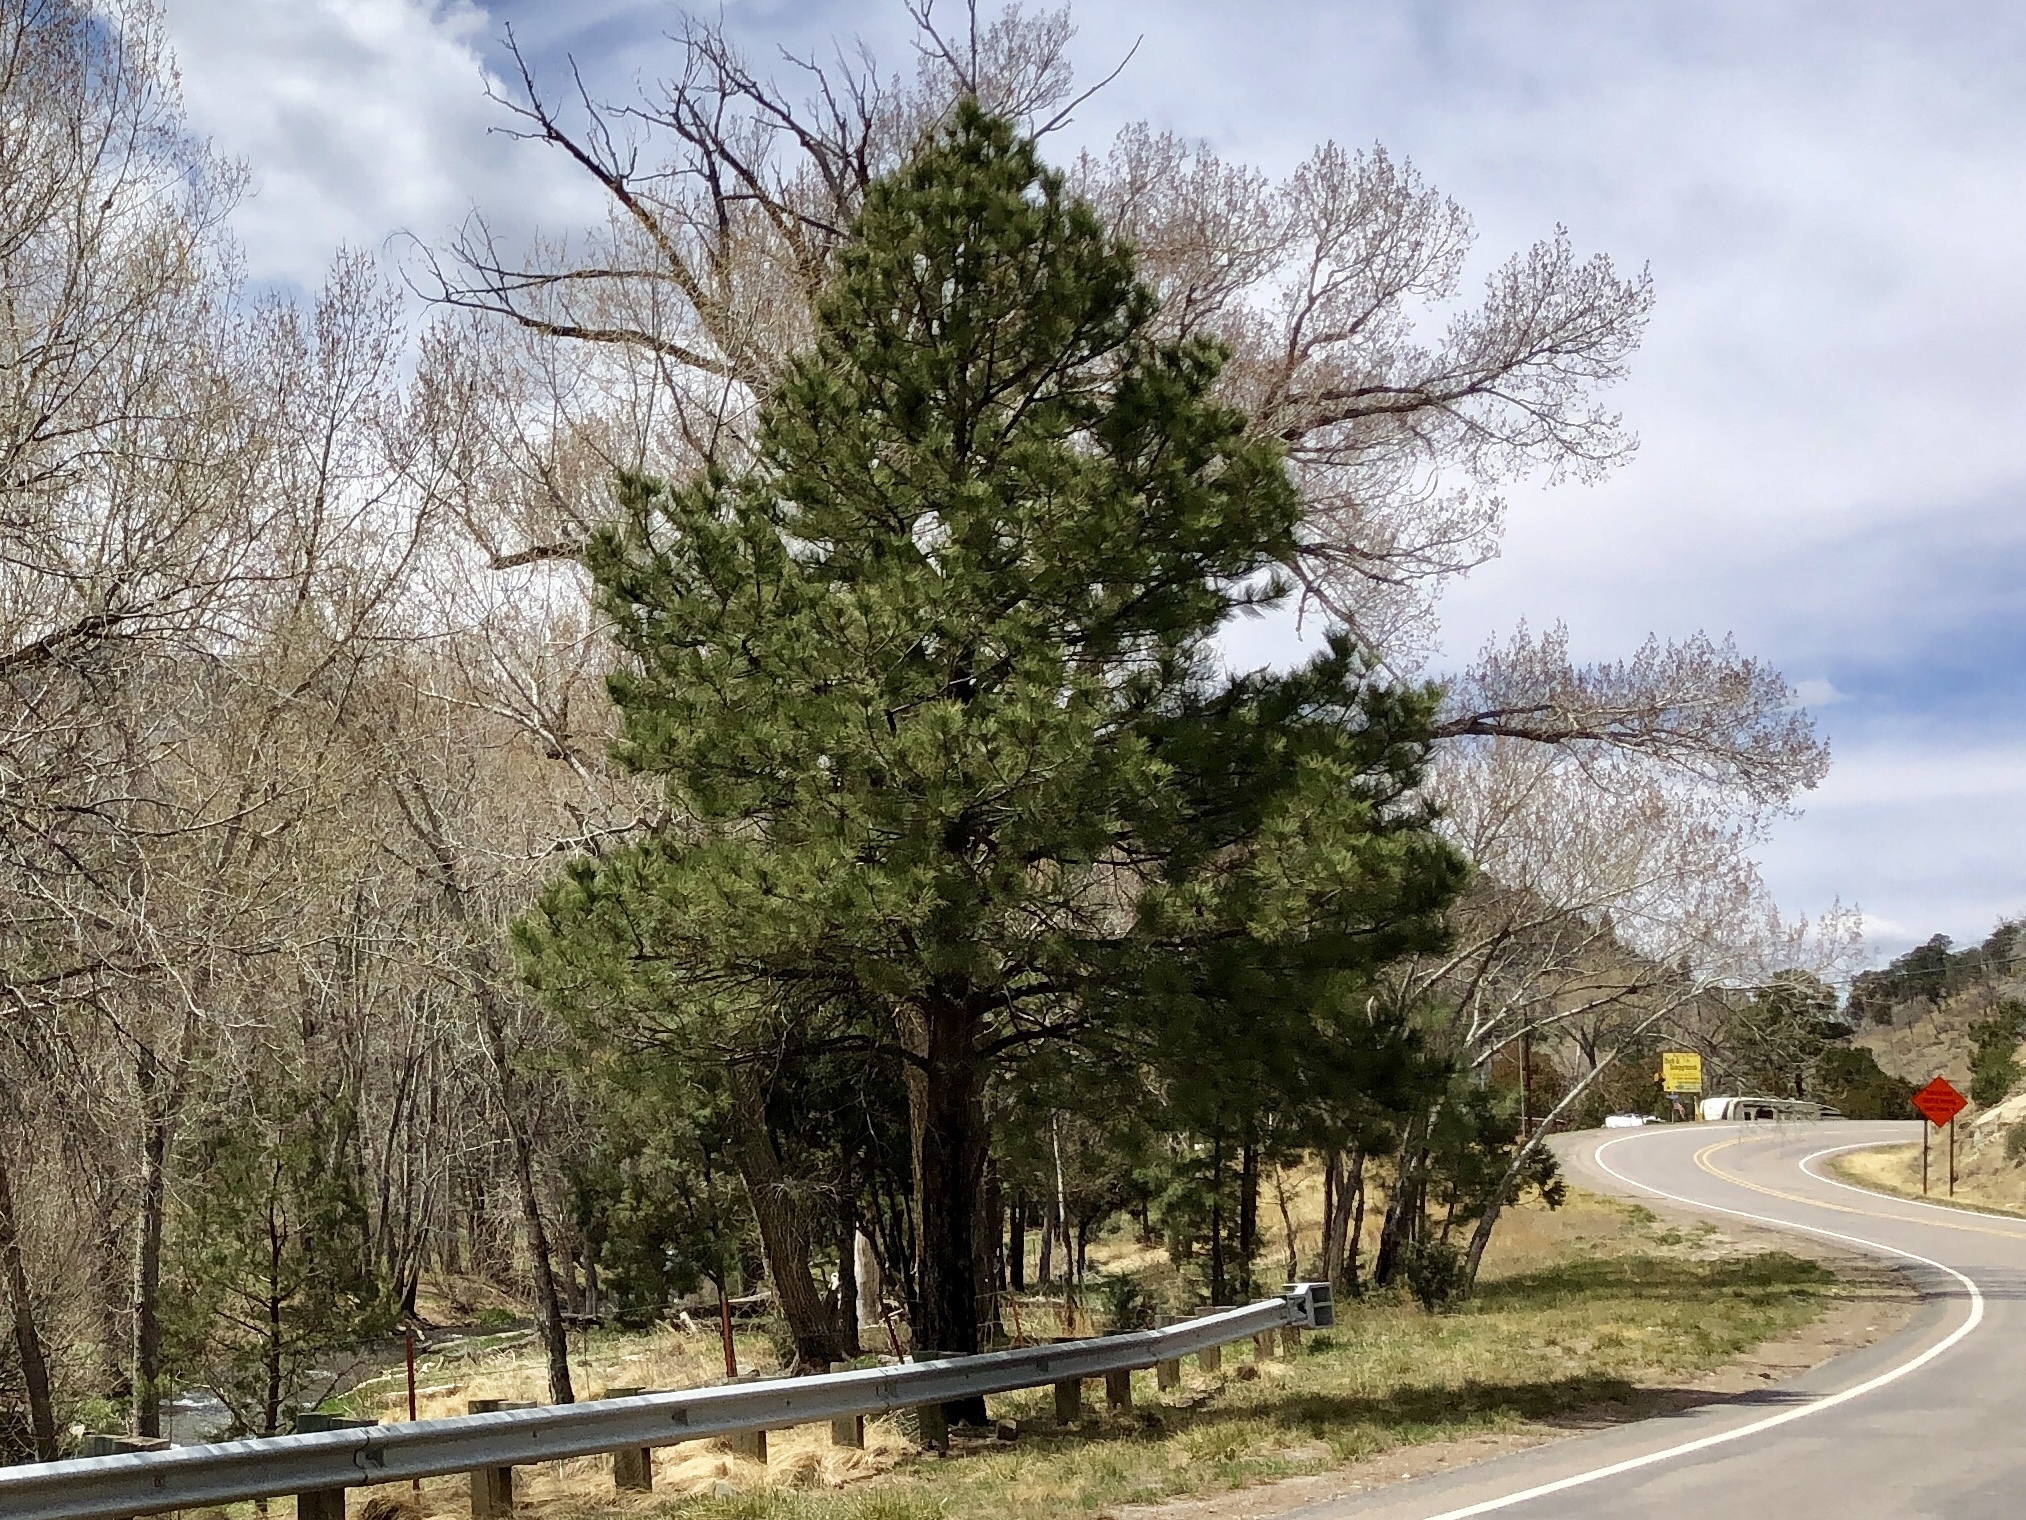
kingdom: Plantae
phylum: Tracheophyta
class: Pinopsida
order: Pinales
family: Pinaceae
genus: Pinus
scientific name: Pinus ponderosa
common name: Western yellow-pine
